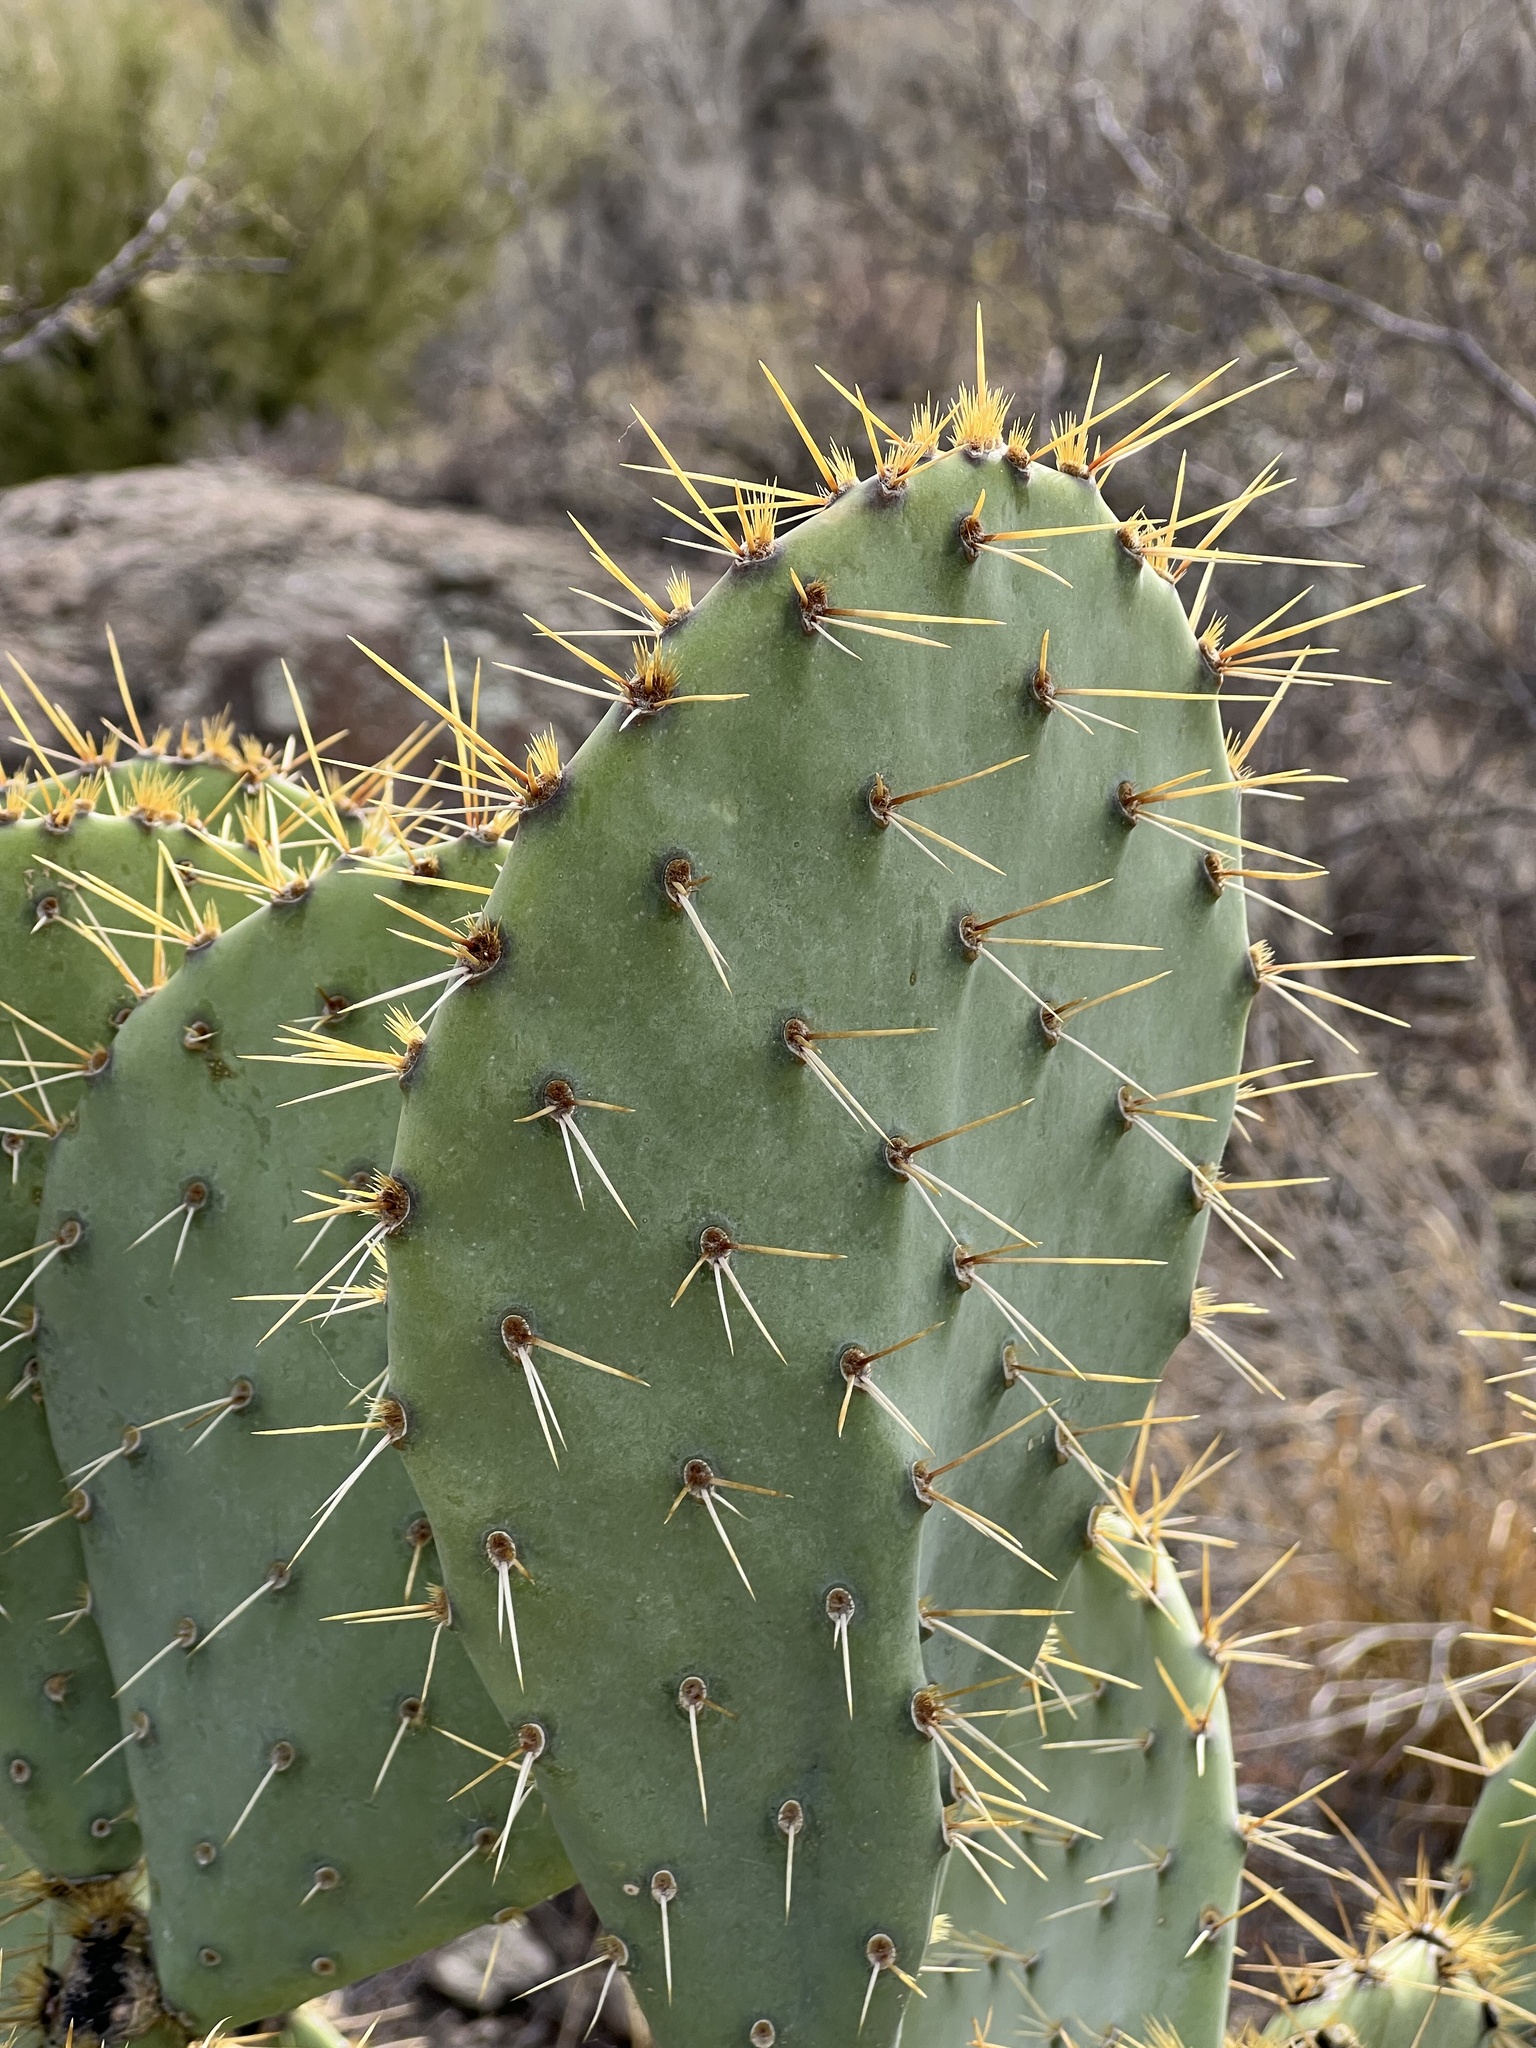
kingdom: Plantae
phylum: Tracheophyta
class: Magnoliopsida
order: Caryophyllales
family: Cactaceae
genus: Opuntia
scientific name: Opuntia engelmannii
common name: Cactus-apple
